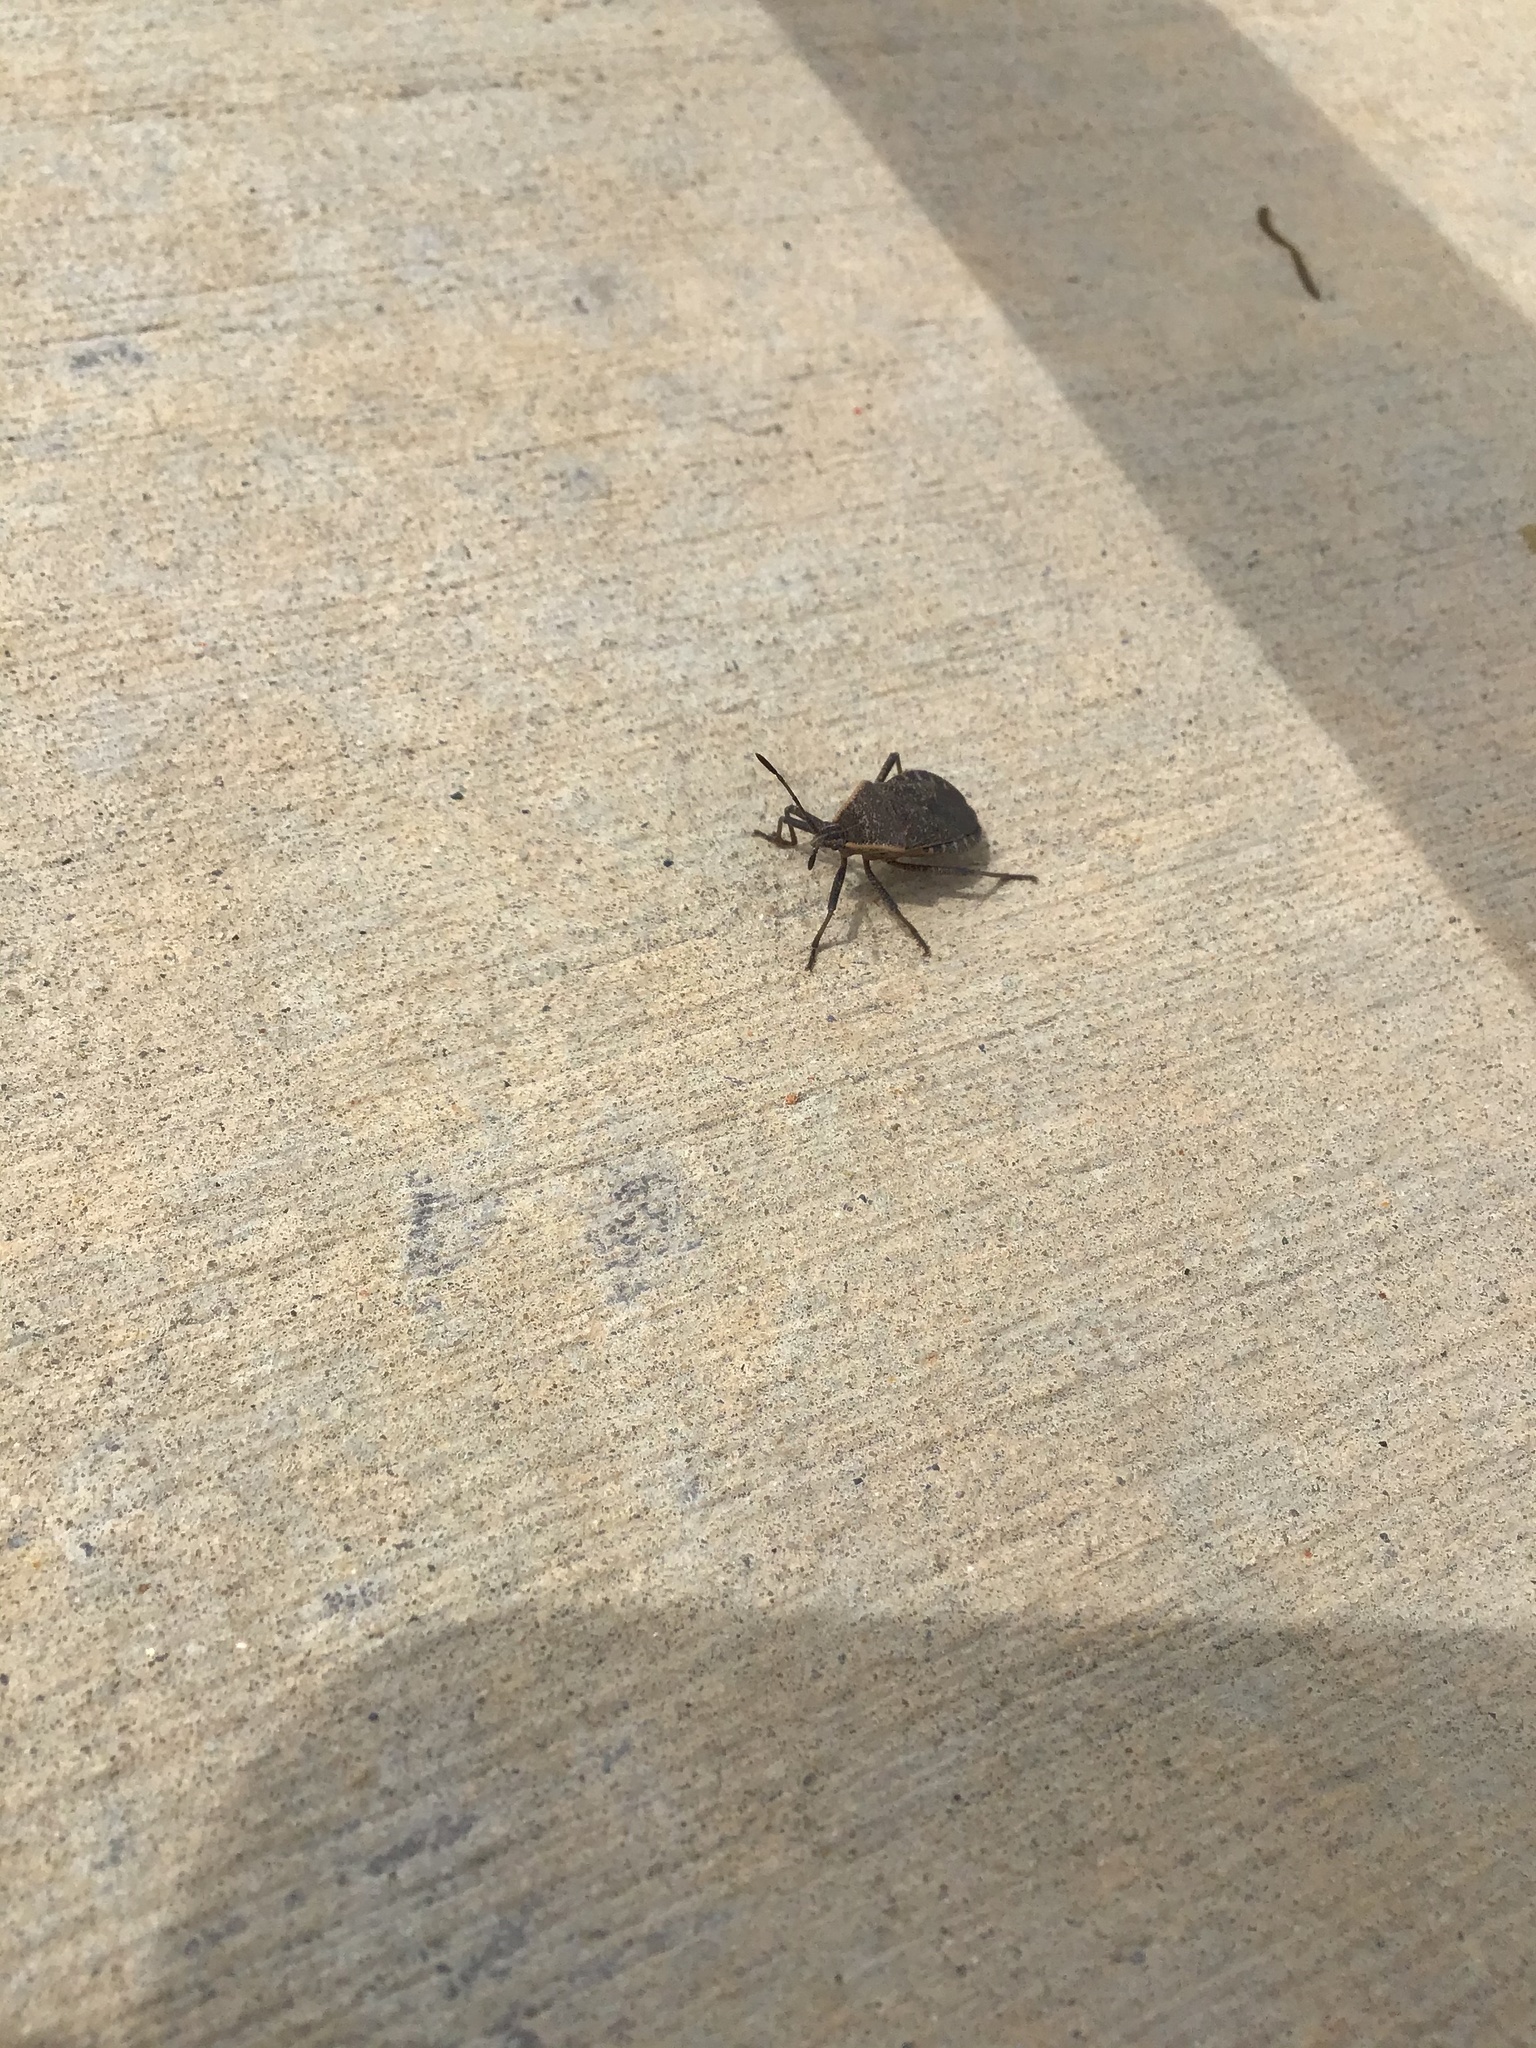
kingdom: Animalia
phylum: Arthropoda
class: Insecta
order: Hemiptera
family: Coreidae
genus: Anasa
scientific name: Anasa tristis
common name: Squash bug
